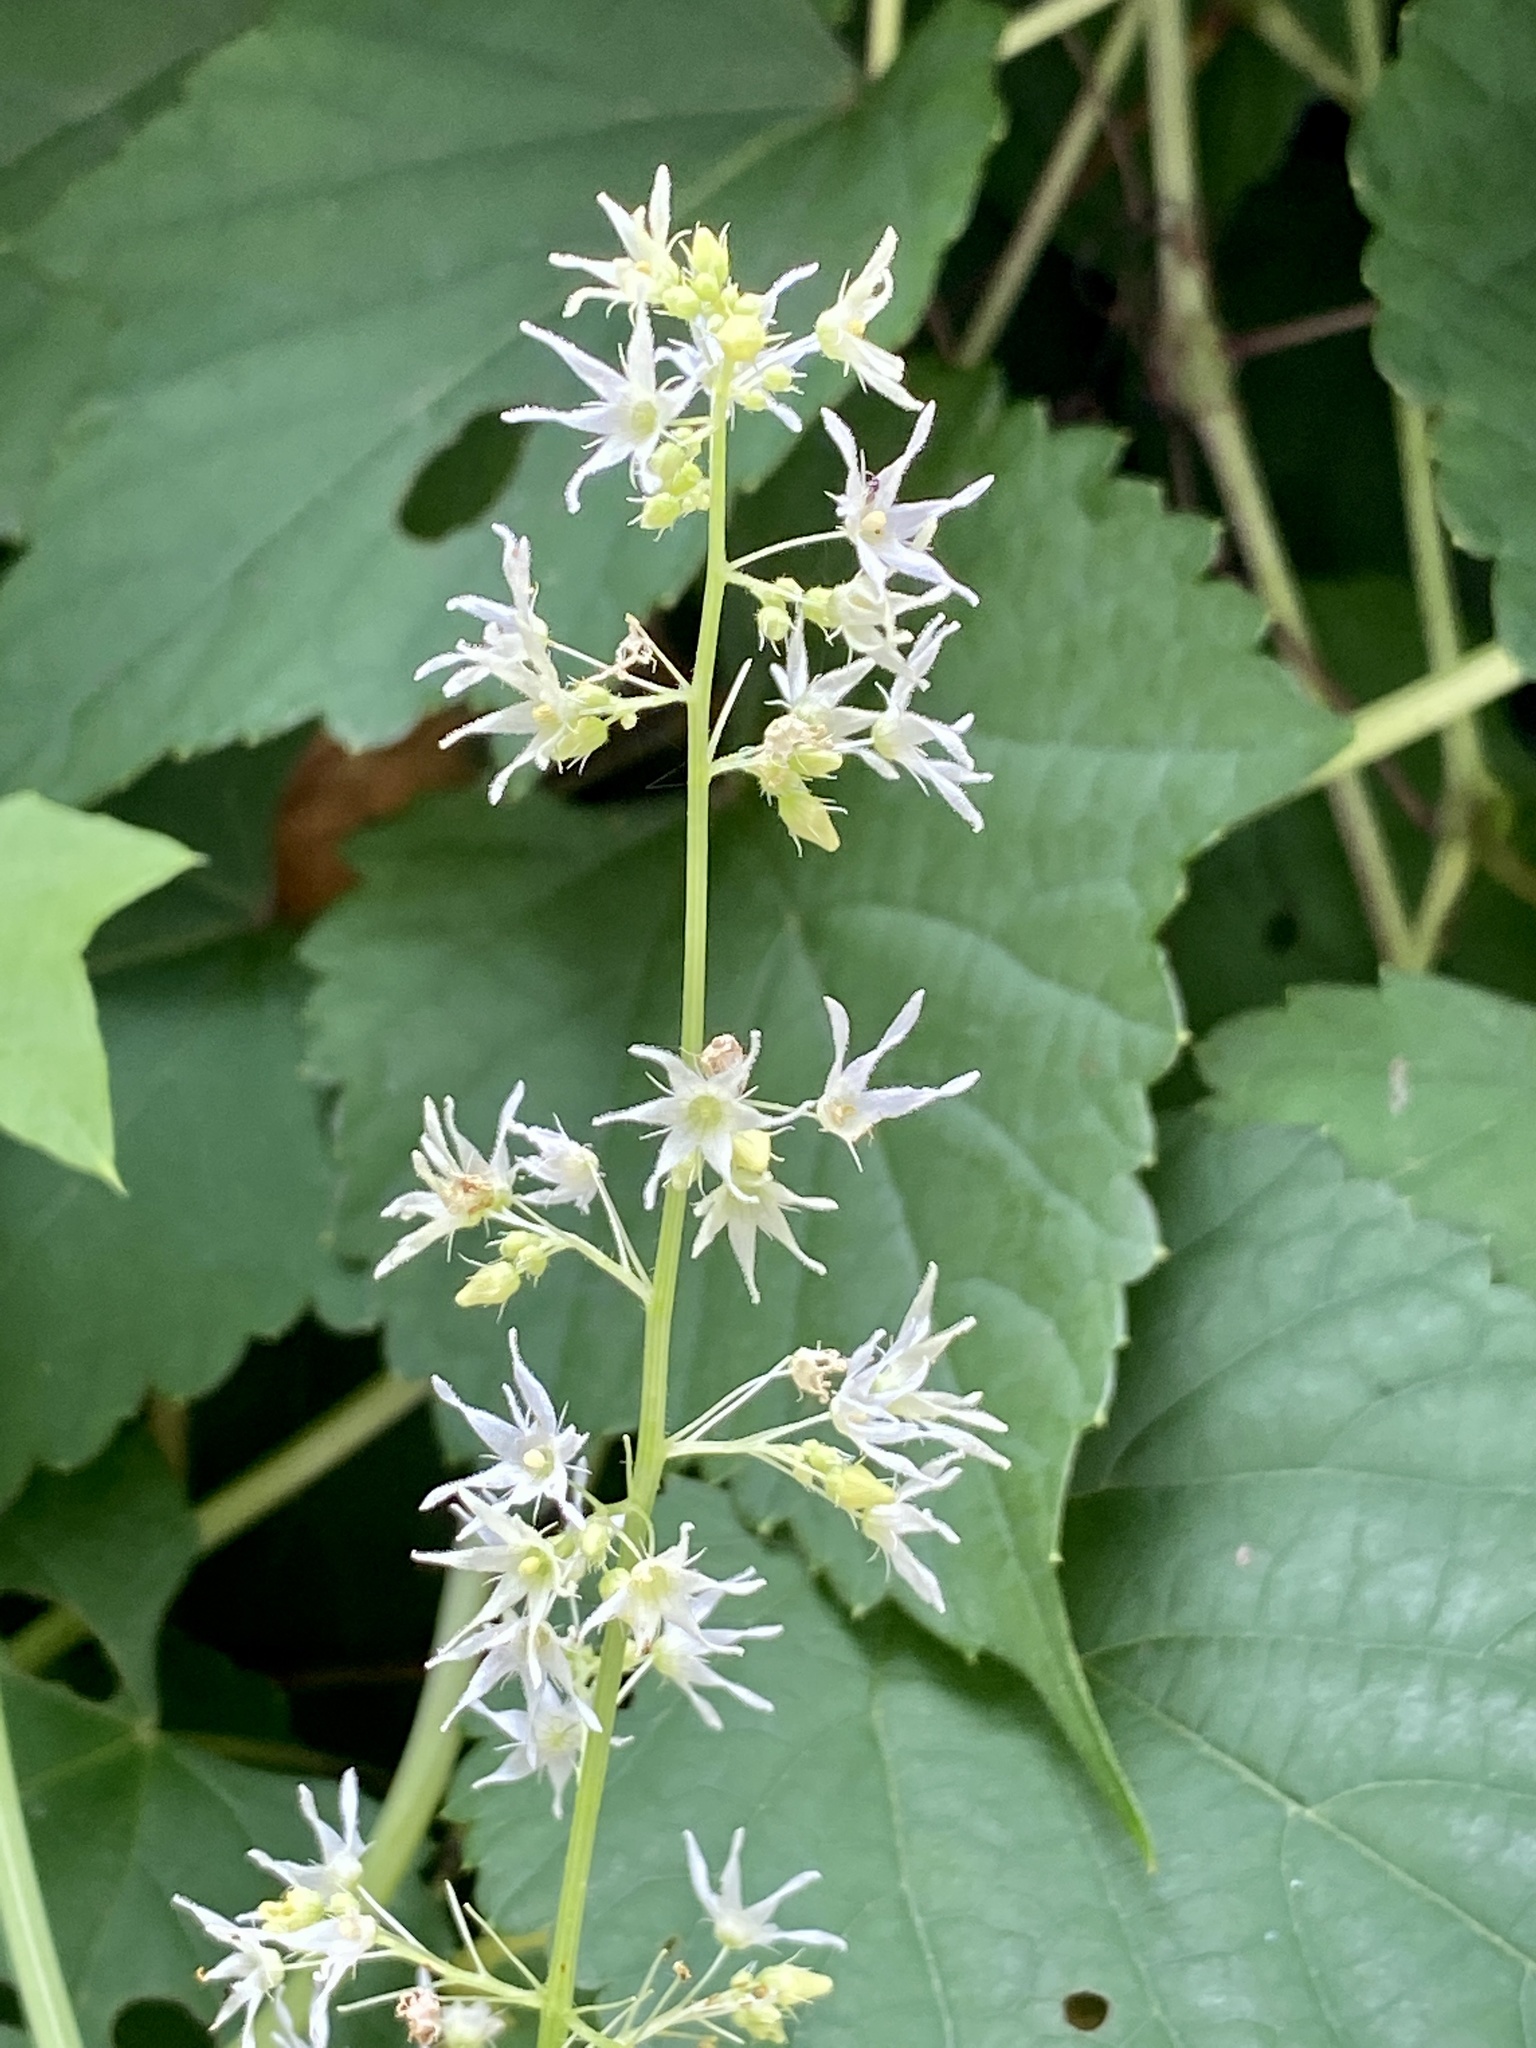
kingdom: Plantae
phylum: Tracheophyta
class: Magnoliopsida
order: Cucurbitales
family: Cucurbitaceae
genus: Echinocystis
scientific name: Echinocystis lobata
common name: Wild cucumber
